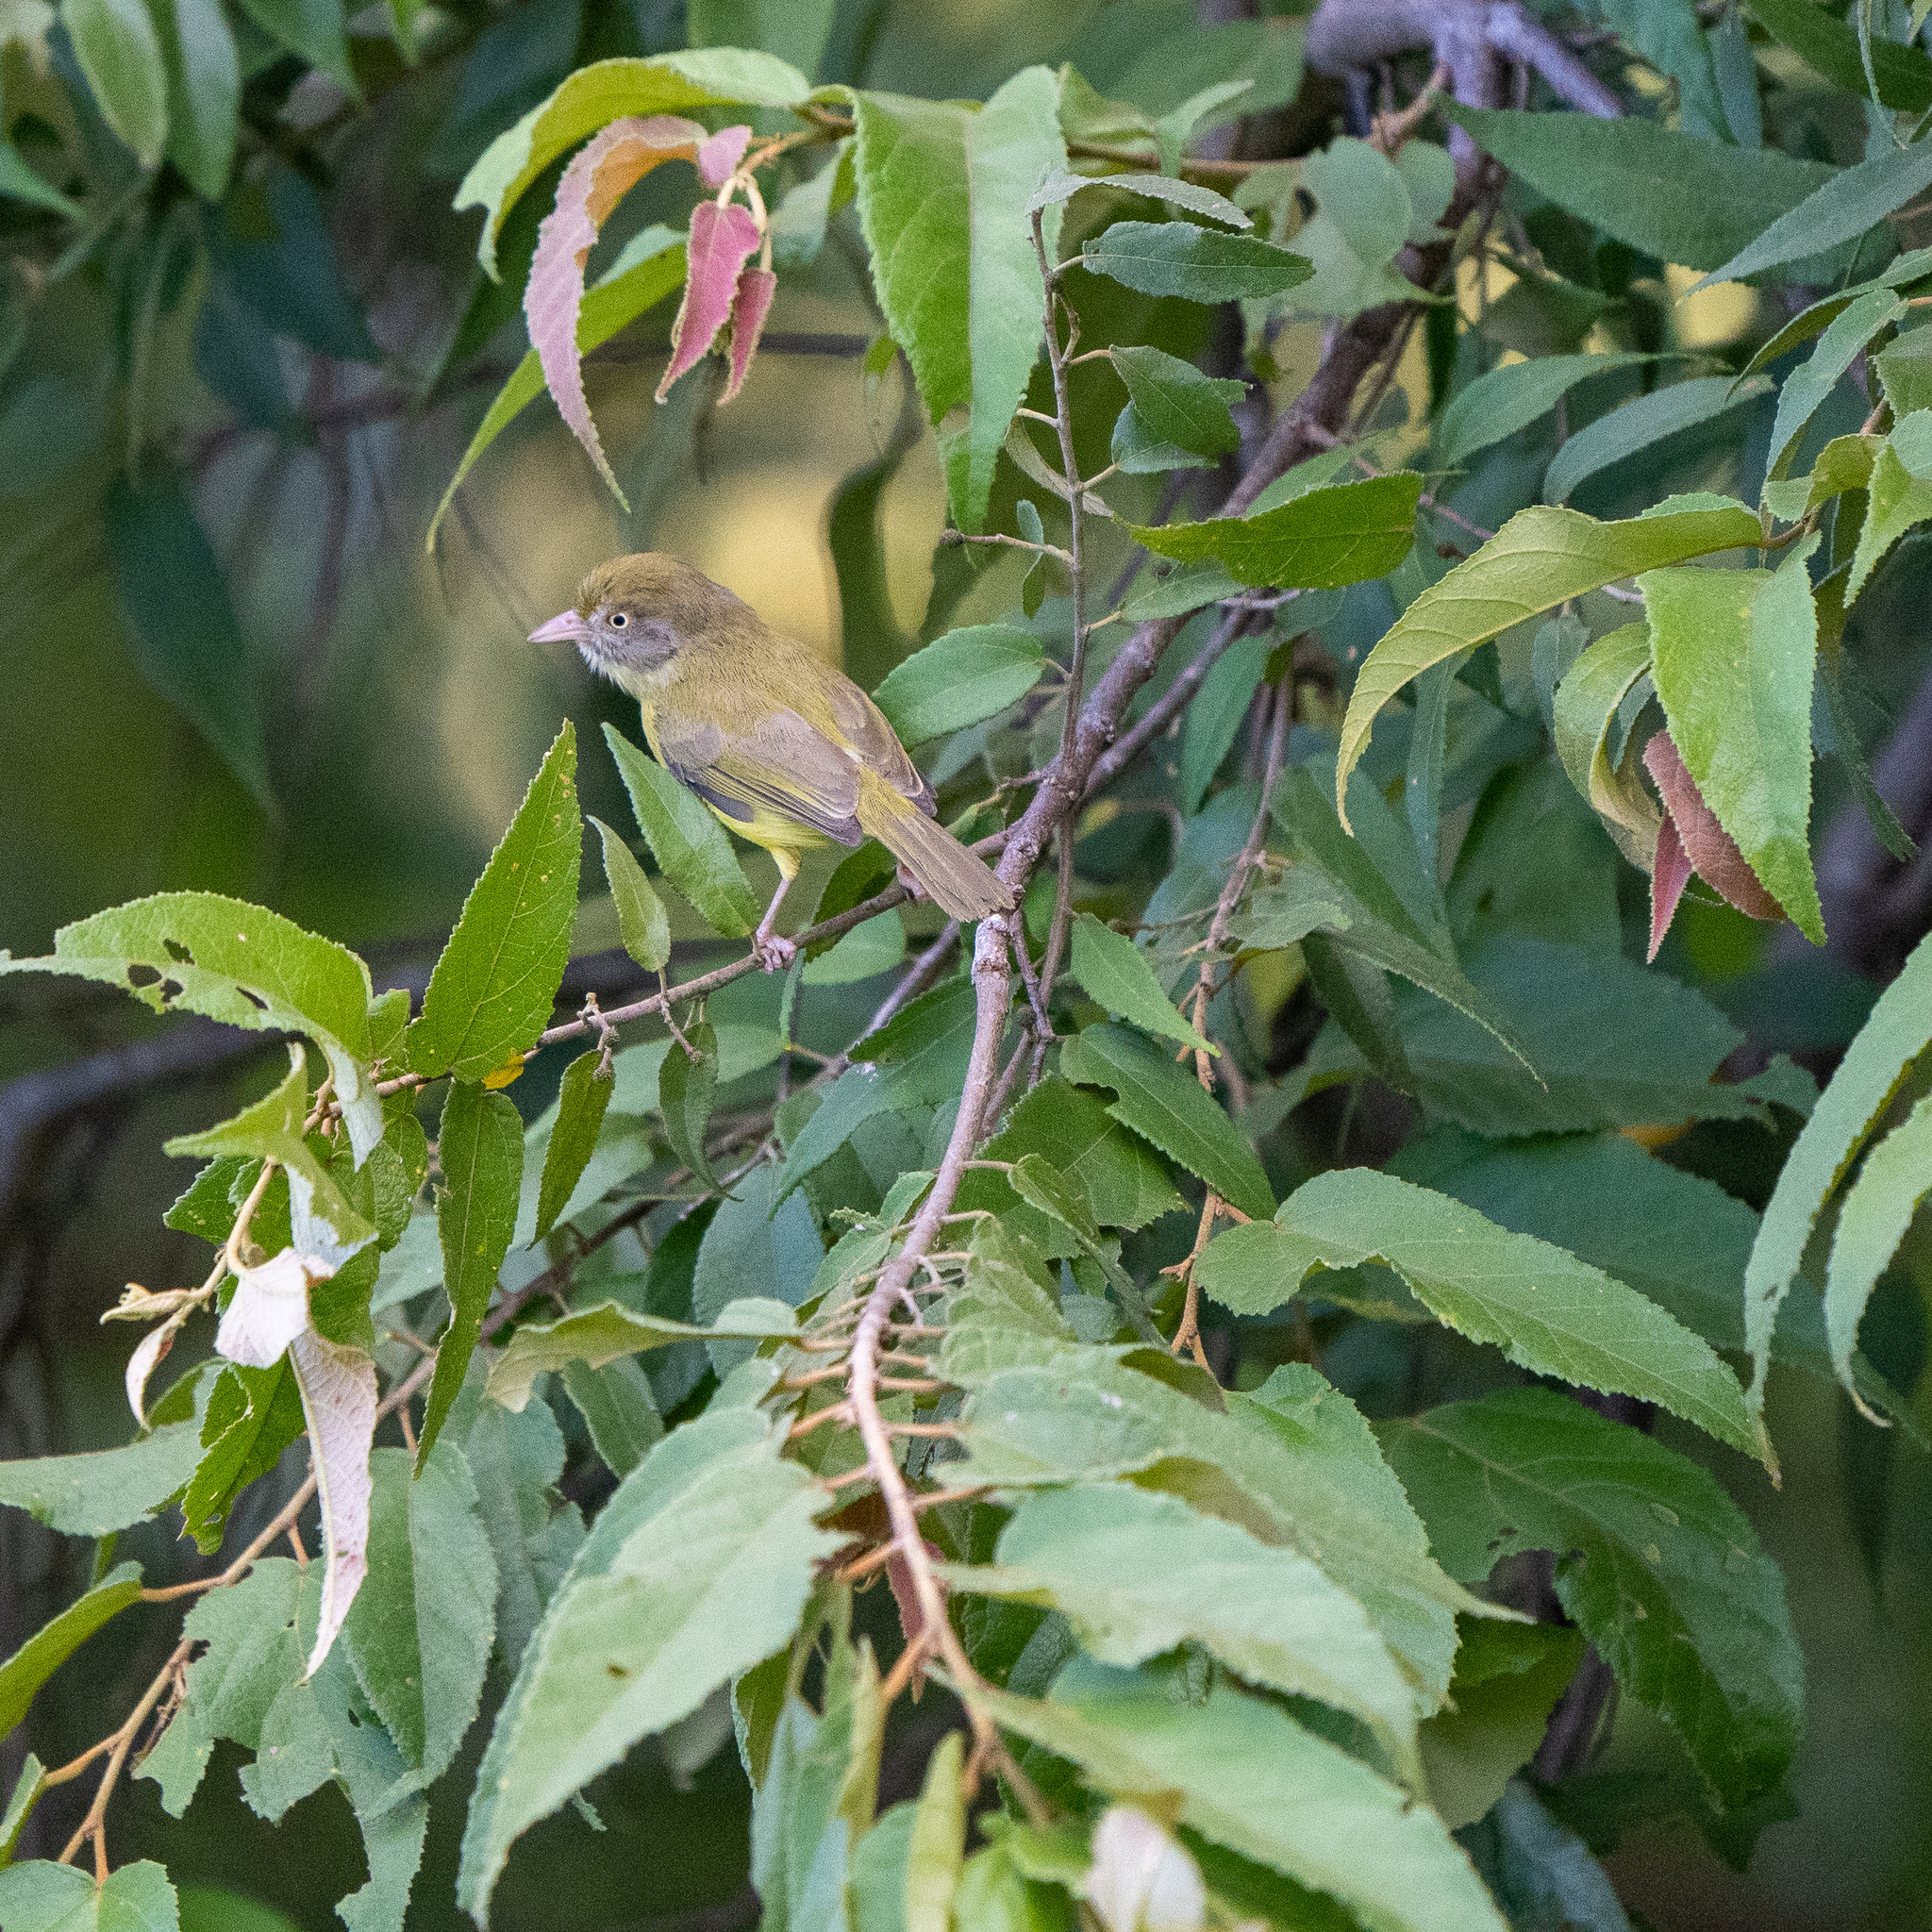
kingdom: Animalia
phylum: Chordata
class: Aves
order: Passeriformes
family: Vireonidae
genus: Hylophilus
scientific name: Hylophilus flavipes
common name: Scrub greenlet
